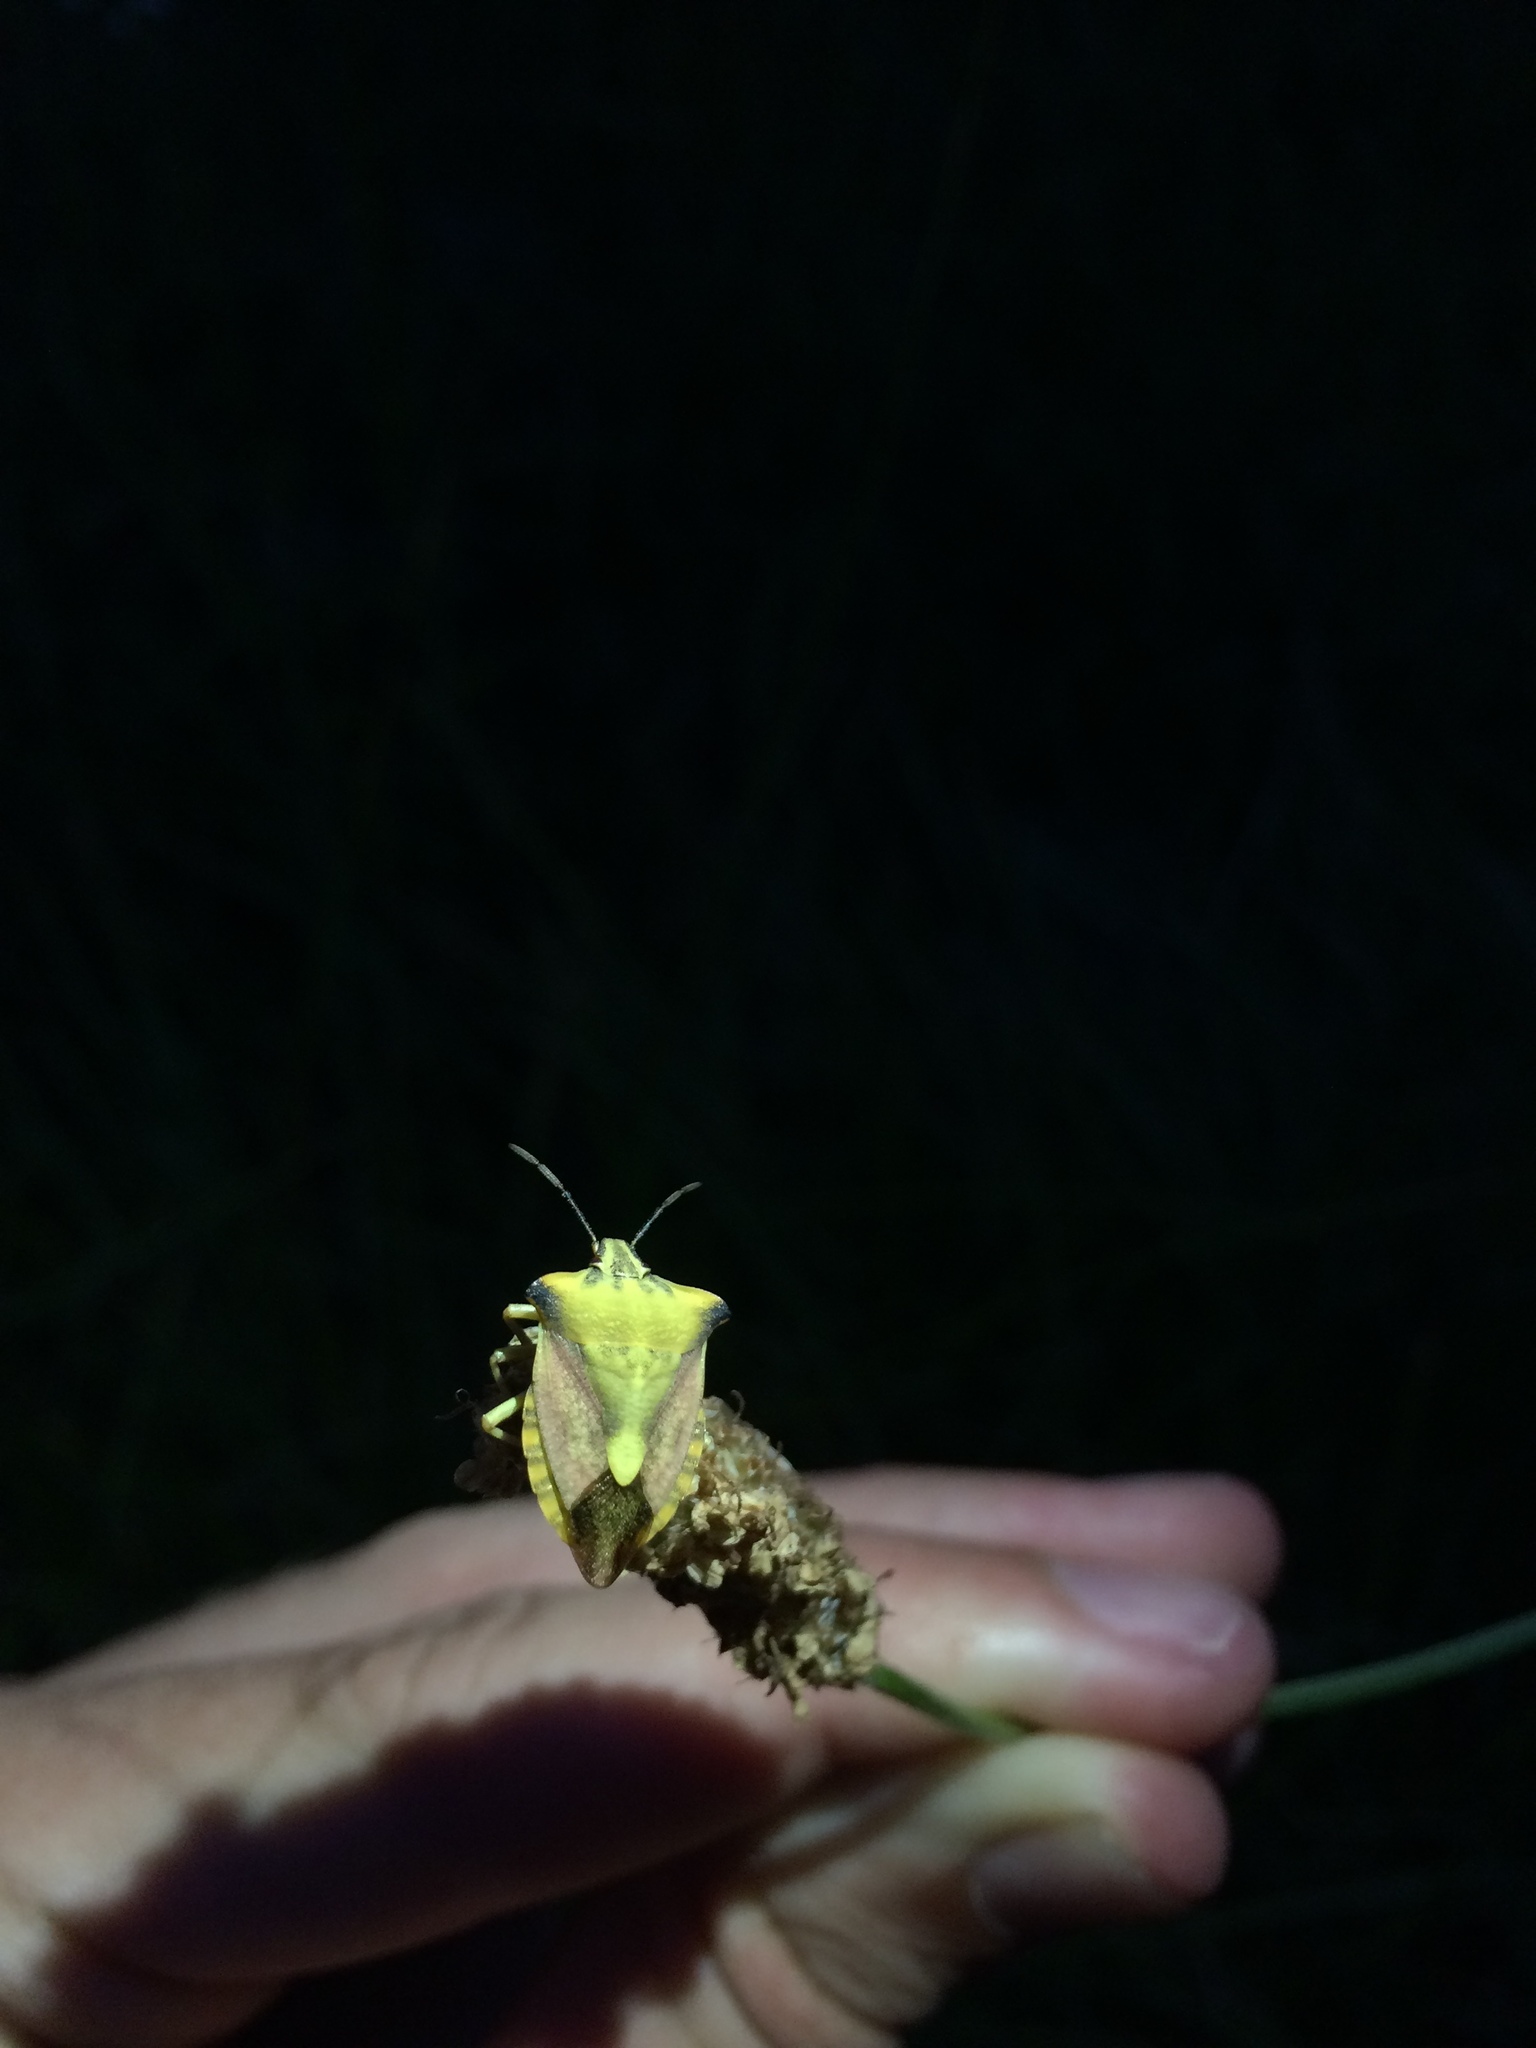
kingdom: Animalia
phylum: Arthropoda
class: Insecta
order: Hemiptera
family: Pentatomidae
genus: Carpocoris
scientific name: Carpocoris fuscispinus
